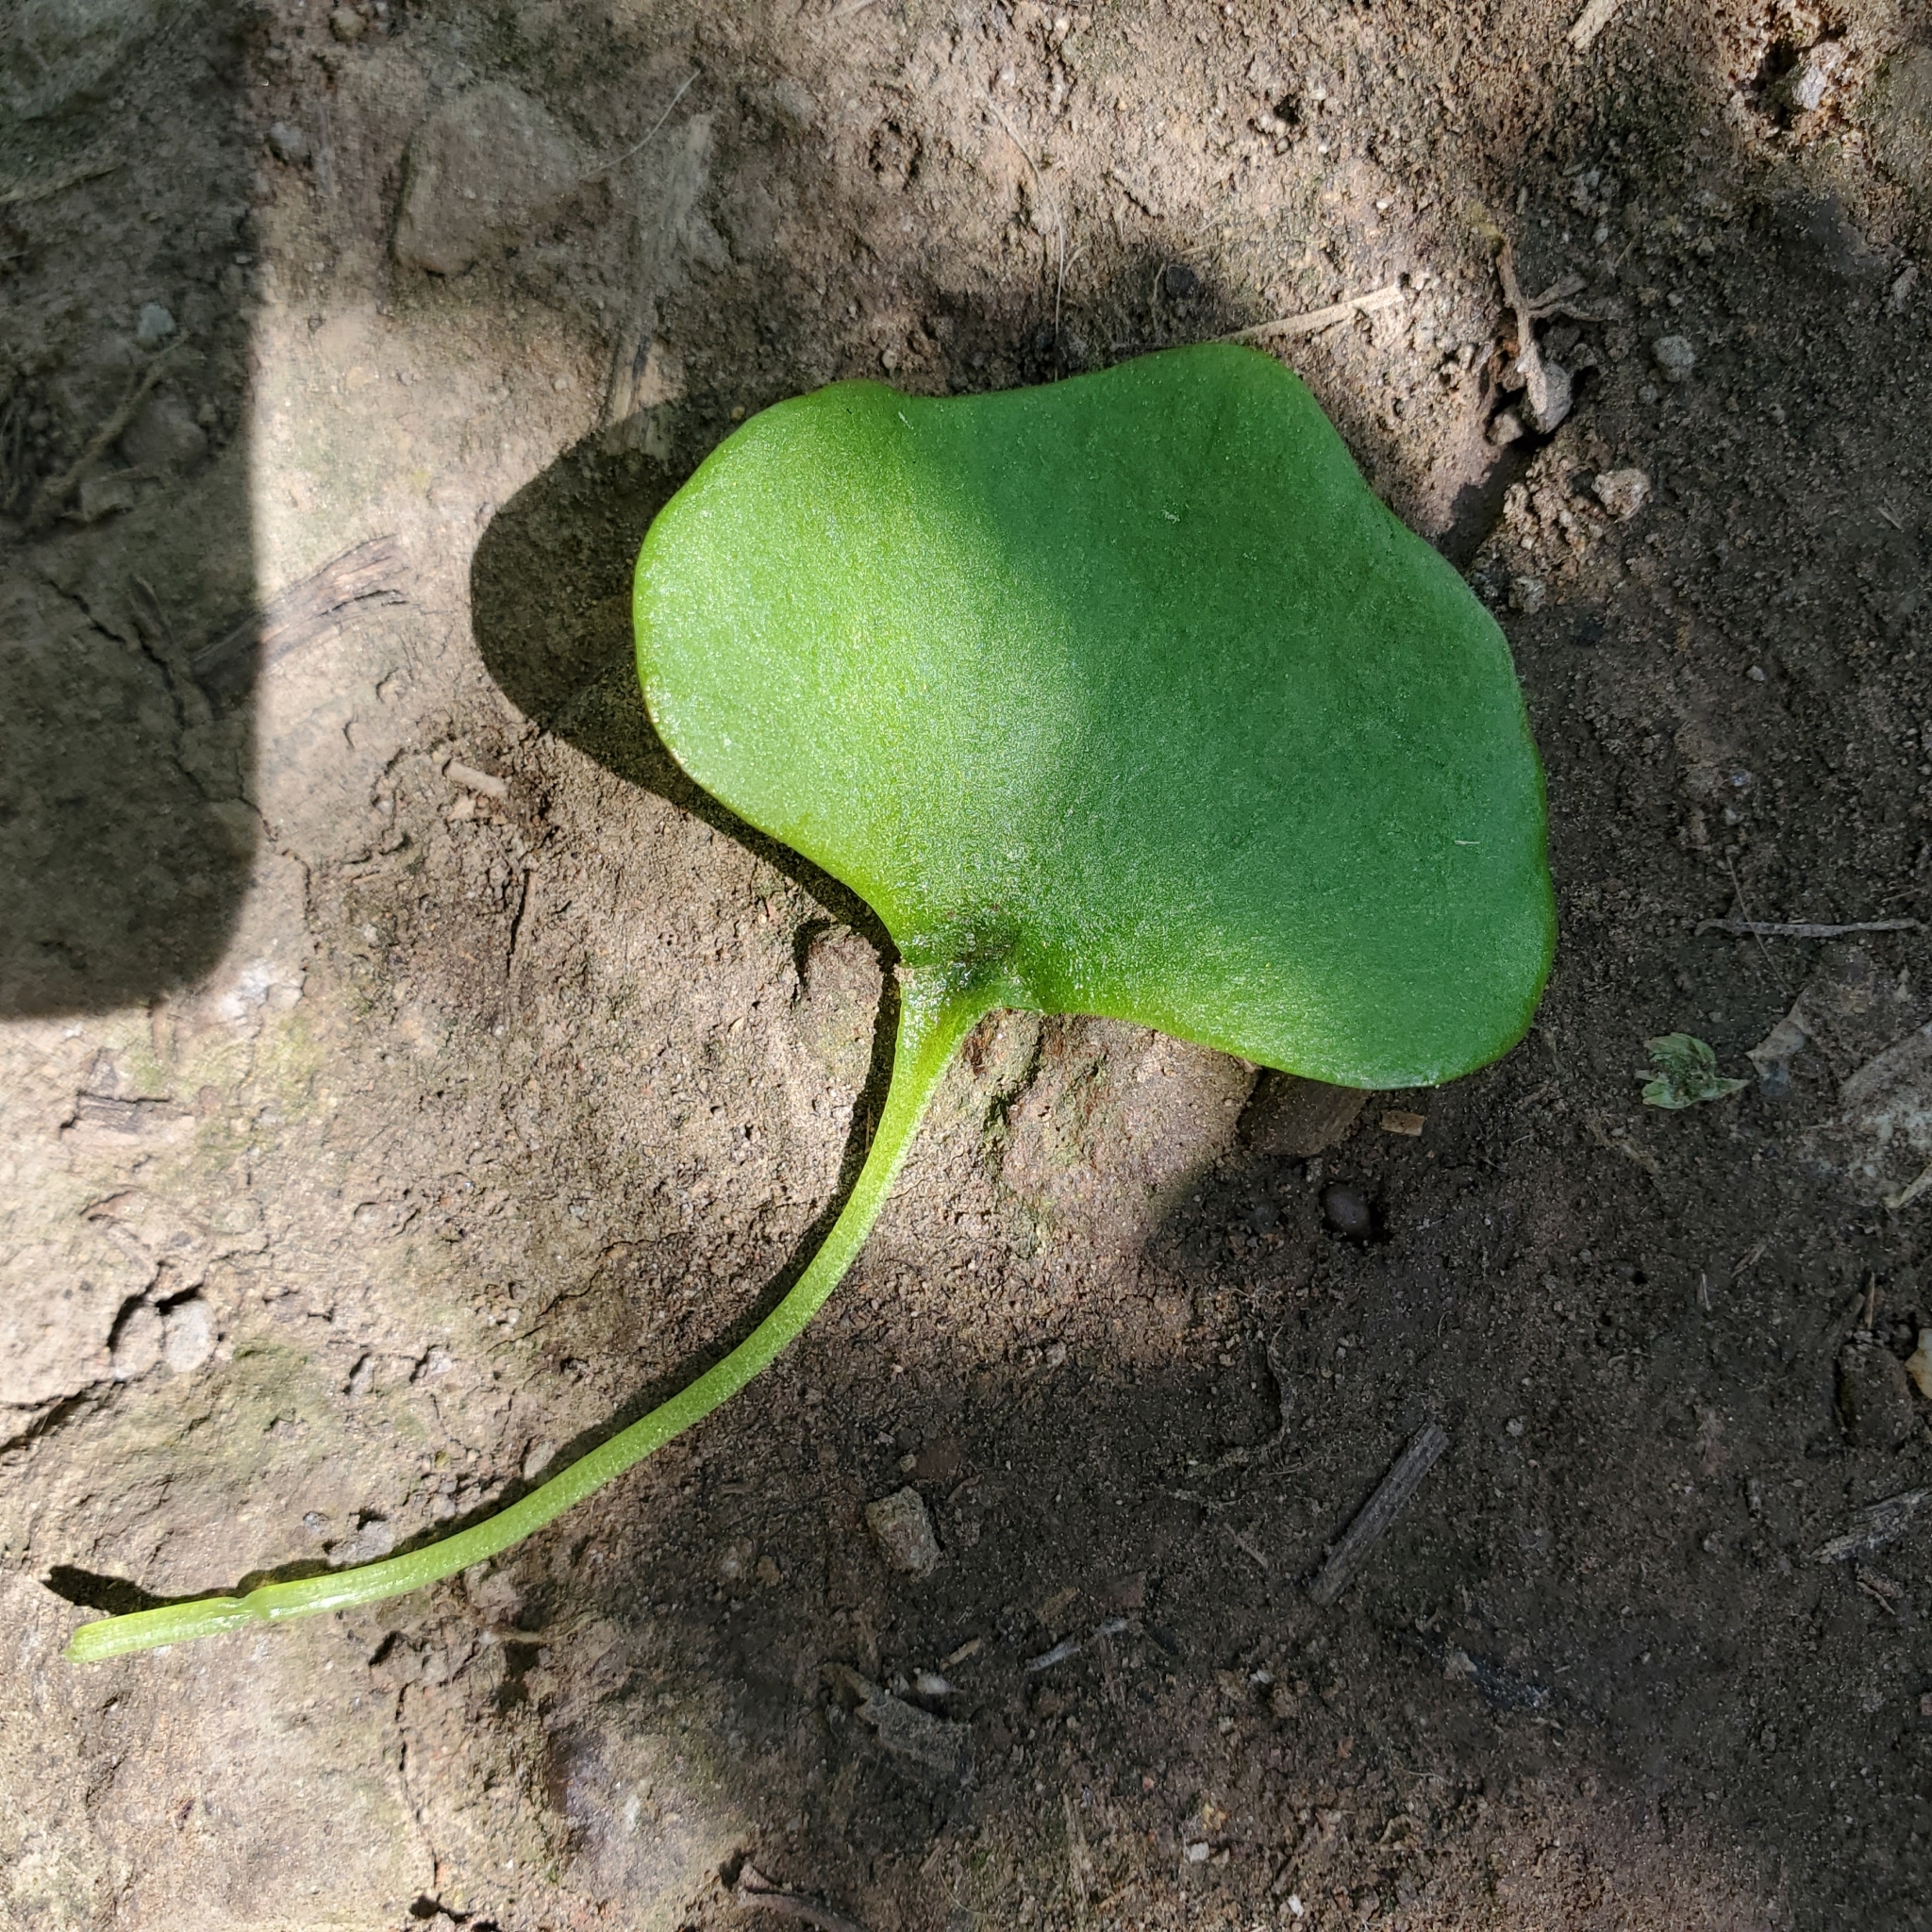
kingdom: Plantae
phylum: Tracheophyta
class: Magnoliopsida
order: Caryophyllales
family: Montiaceae
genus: Claytonia
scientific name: Claytonia perfoliata
